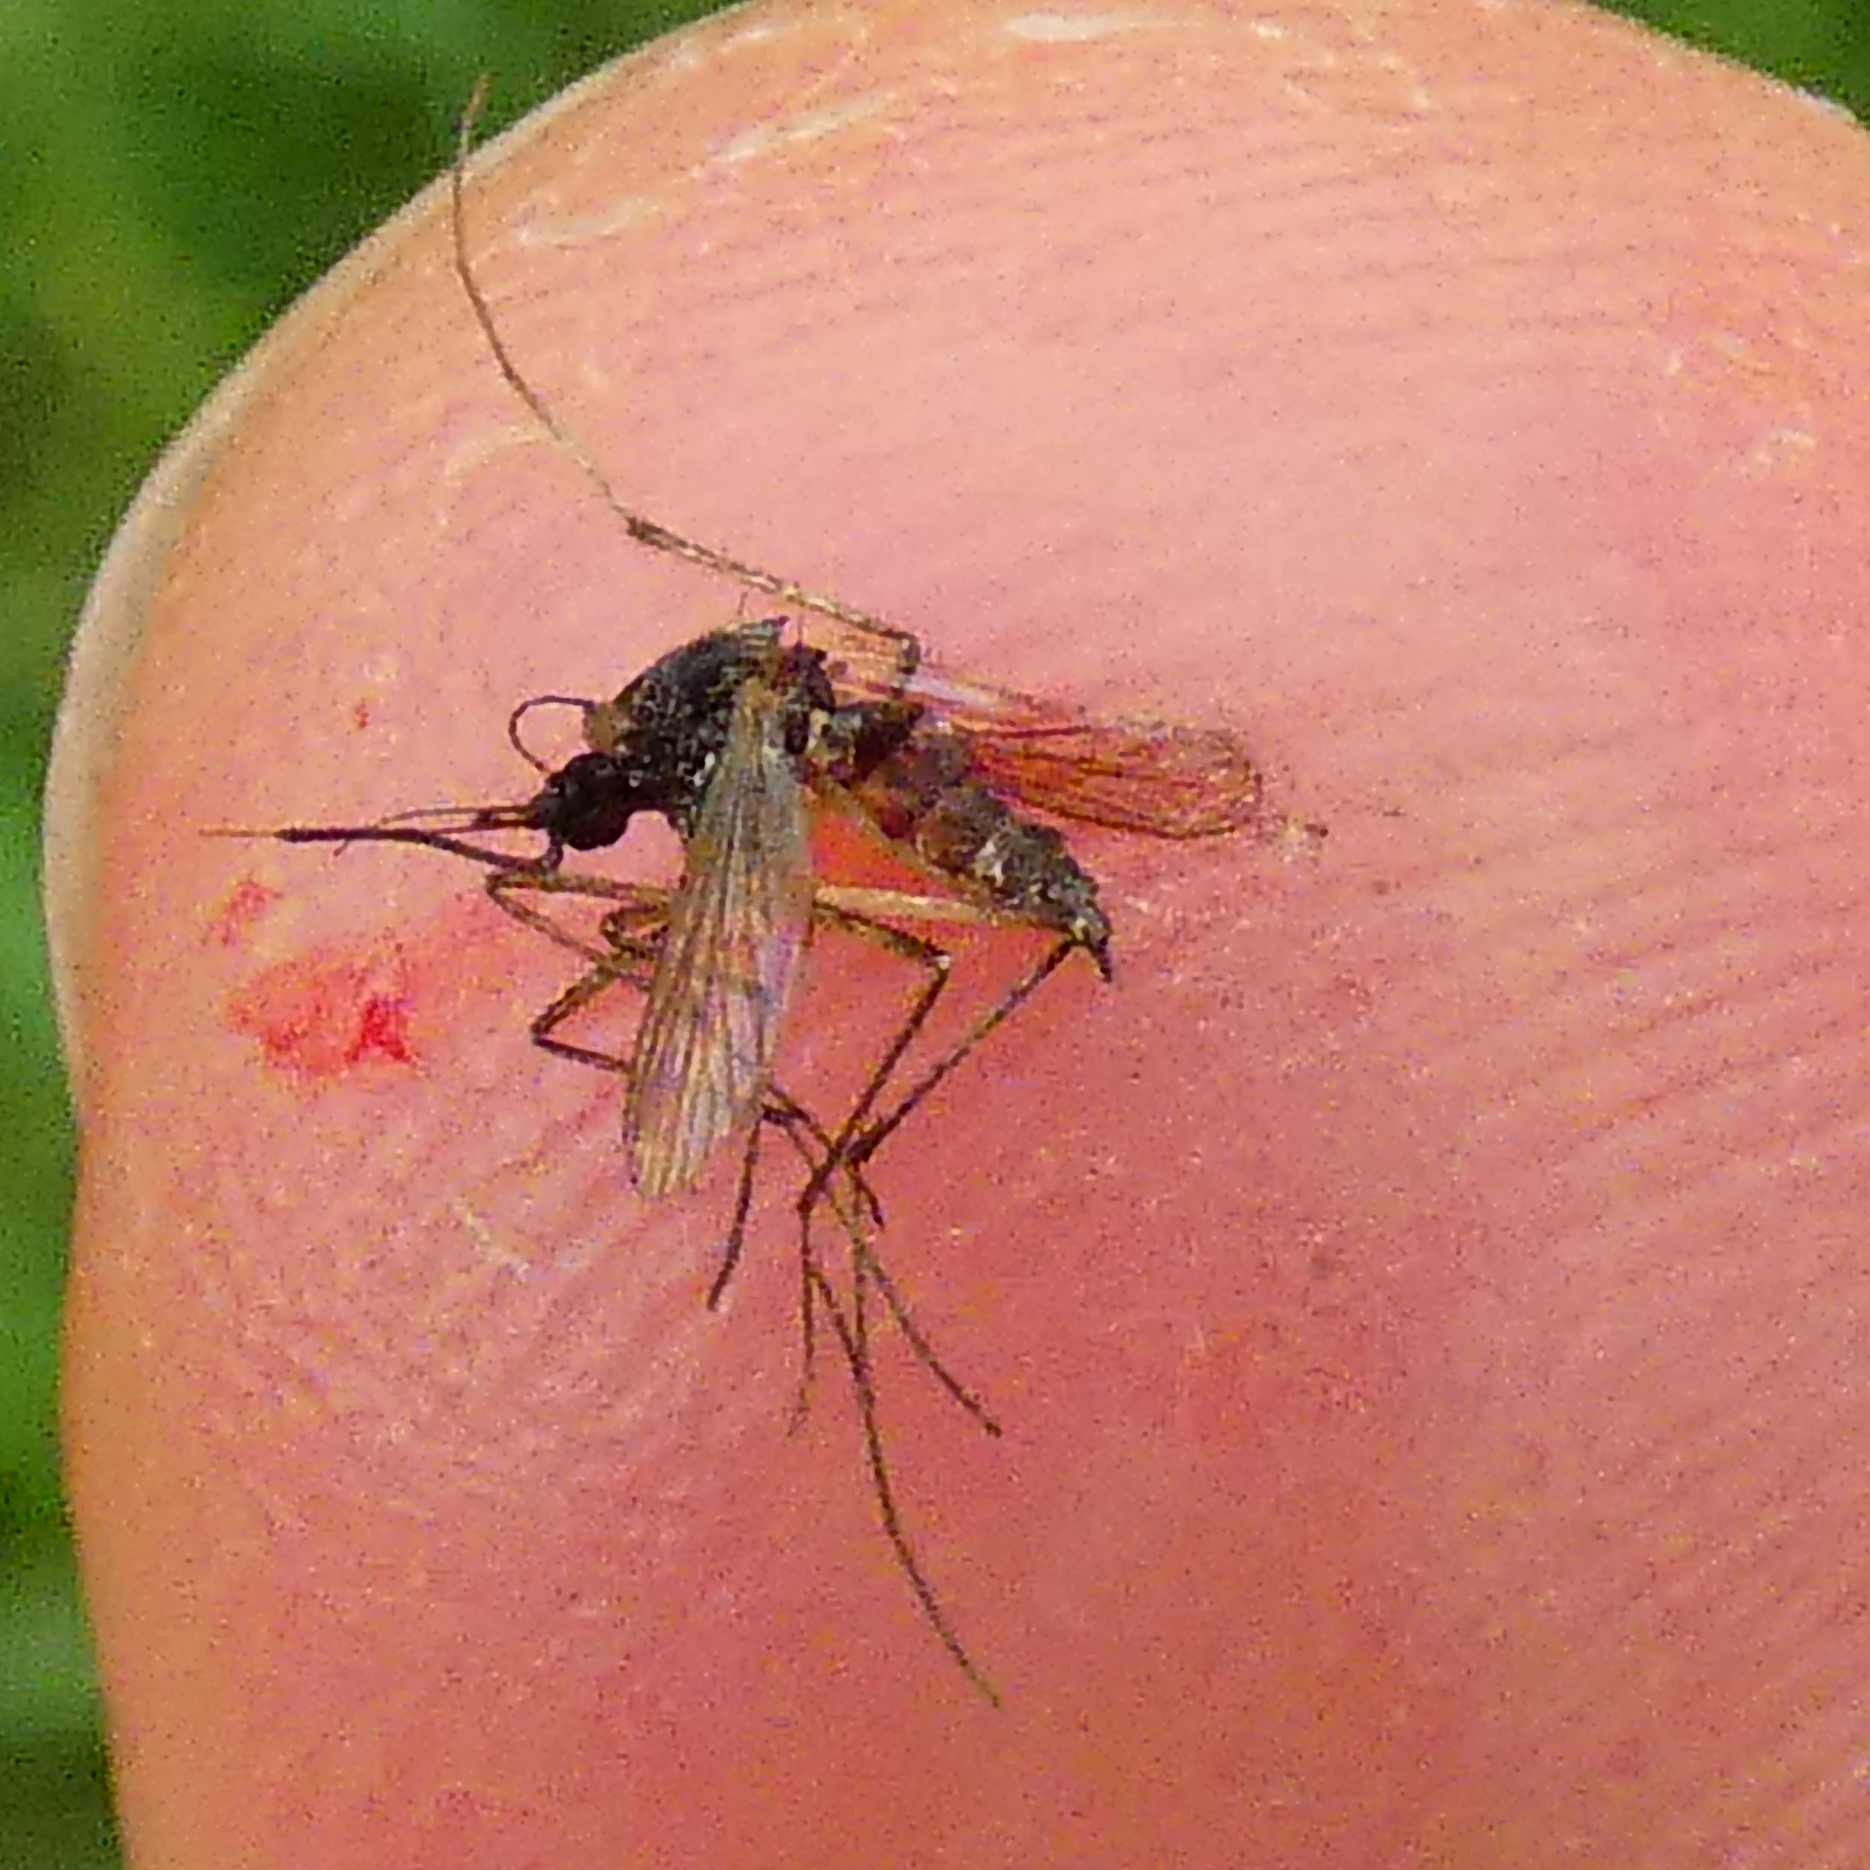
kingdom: Animalia
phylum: Arthropoda
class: Insecta
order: Diptera
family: Culicidae
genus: Aedes
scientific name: Aedes caspius
